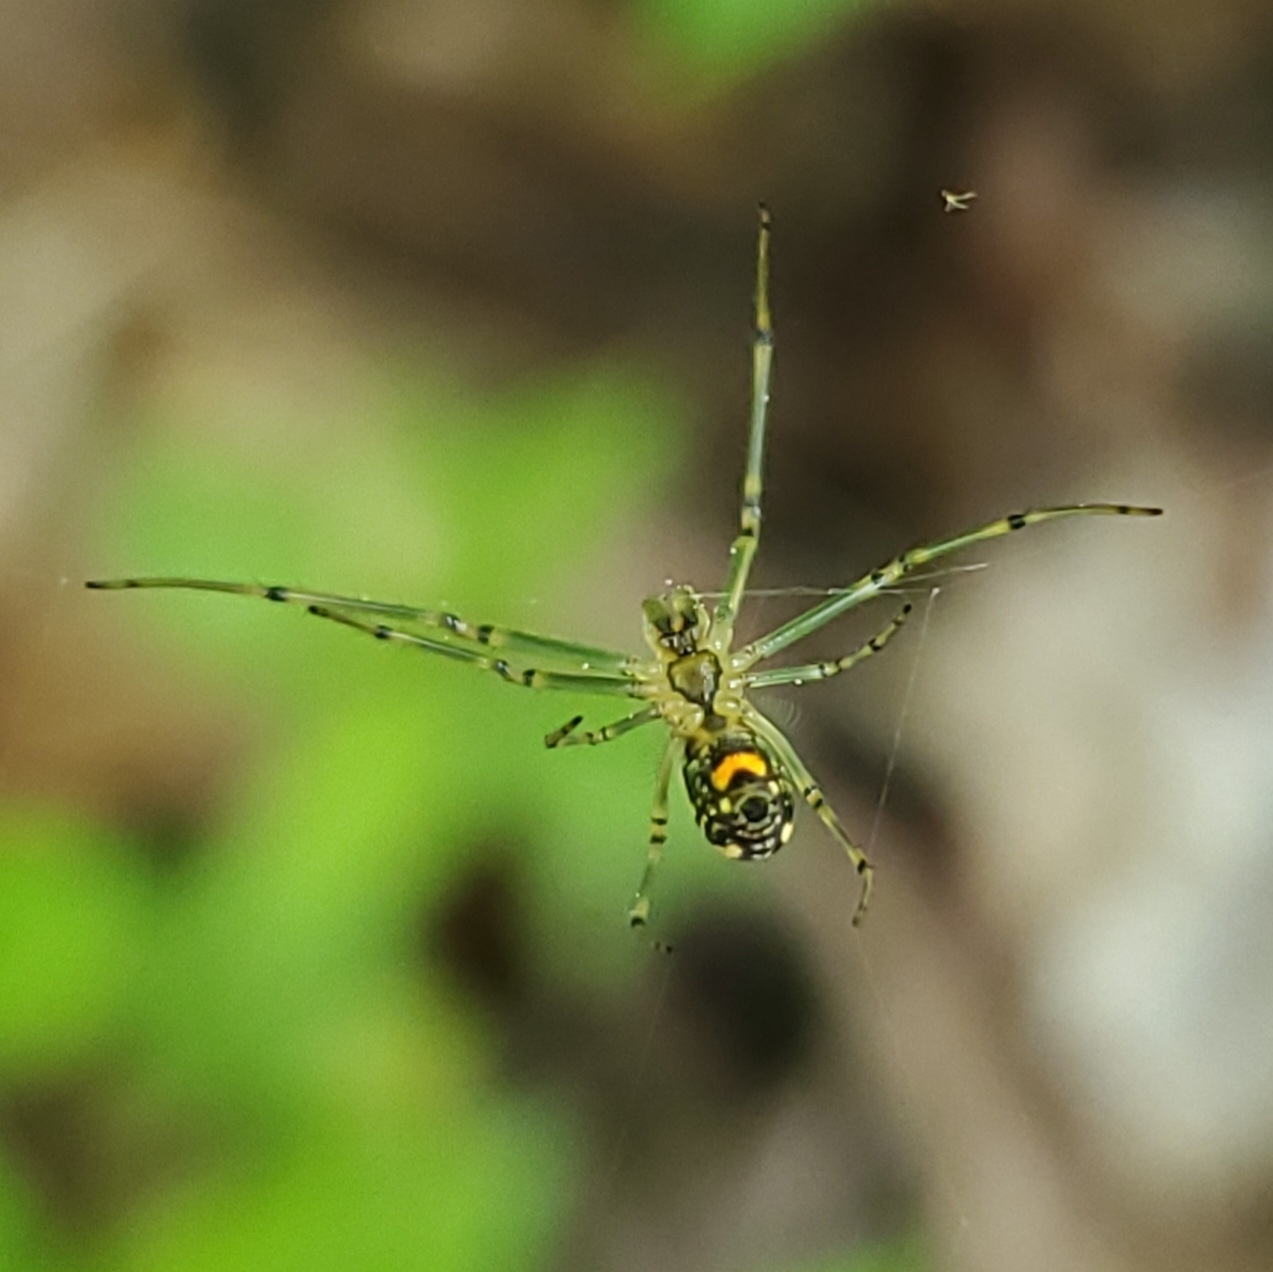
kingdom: Animalia
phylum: Arthropoda
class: Arachnida
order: Araneae
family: Tetragnathidae
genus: Leucauge
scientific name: Leucauge venusta
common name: Longjawed orb weavers
